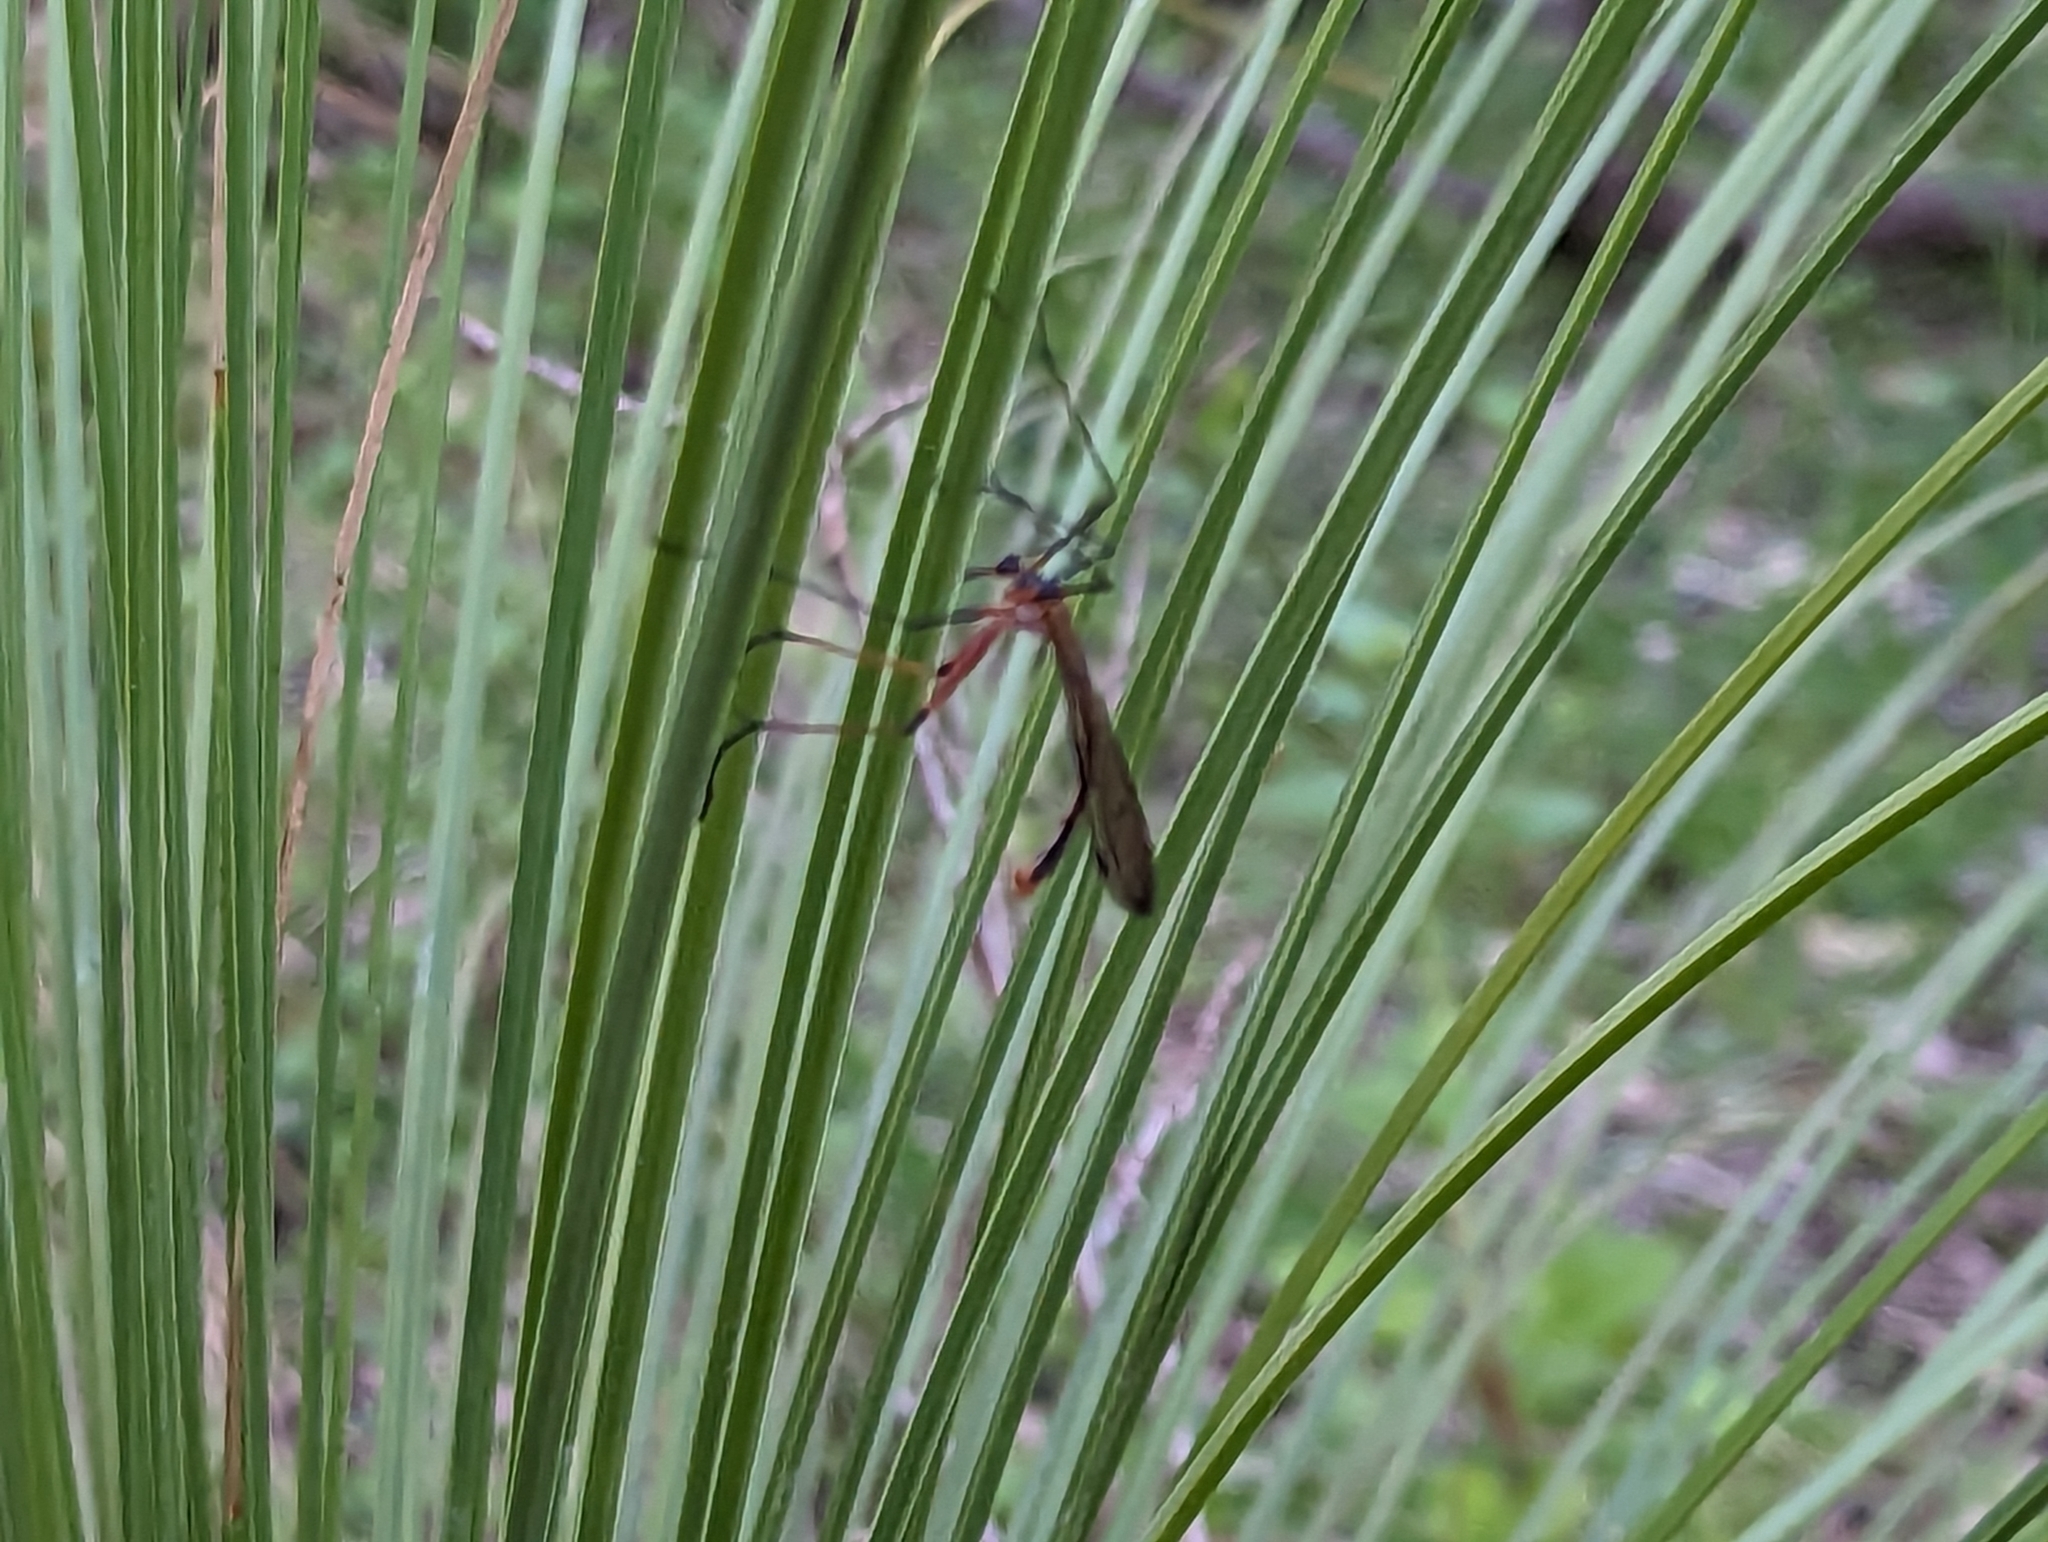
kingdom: Animalia
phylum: Arthropoda
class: Insecta
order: Mecoptera
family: Bittacidae
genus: Harpobittacus
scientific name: Harpobittacus similis
